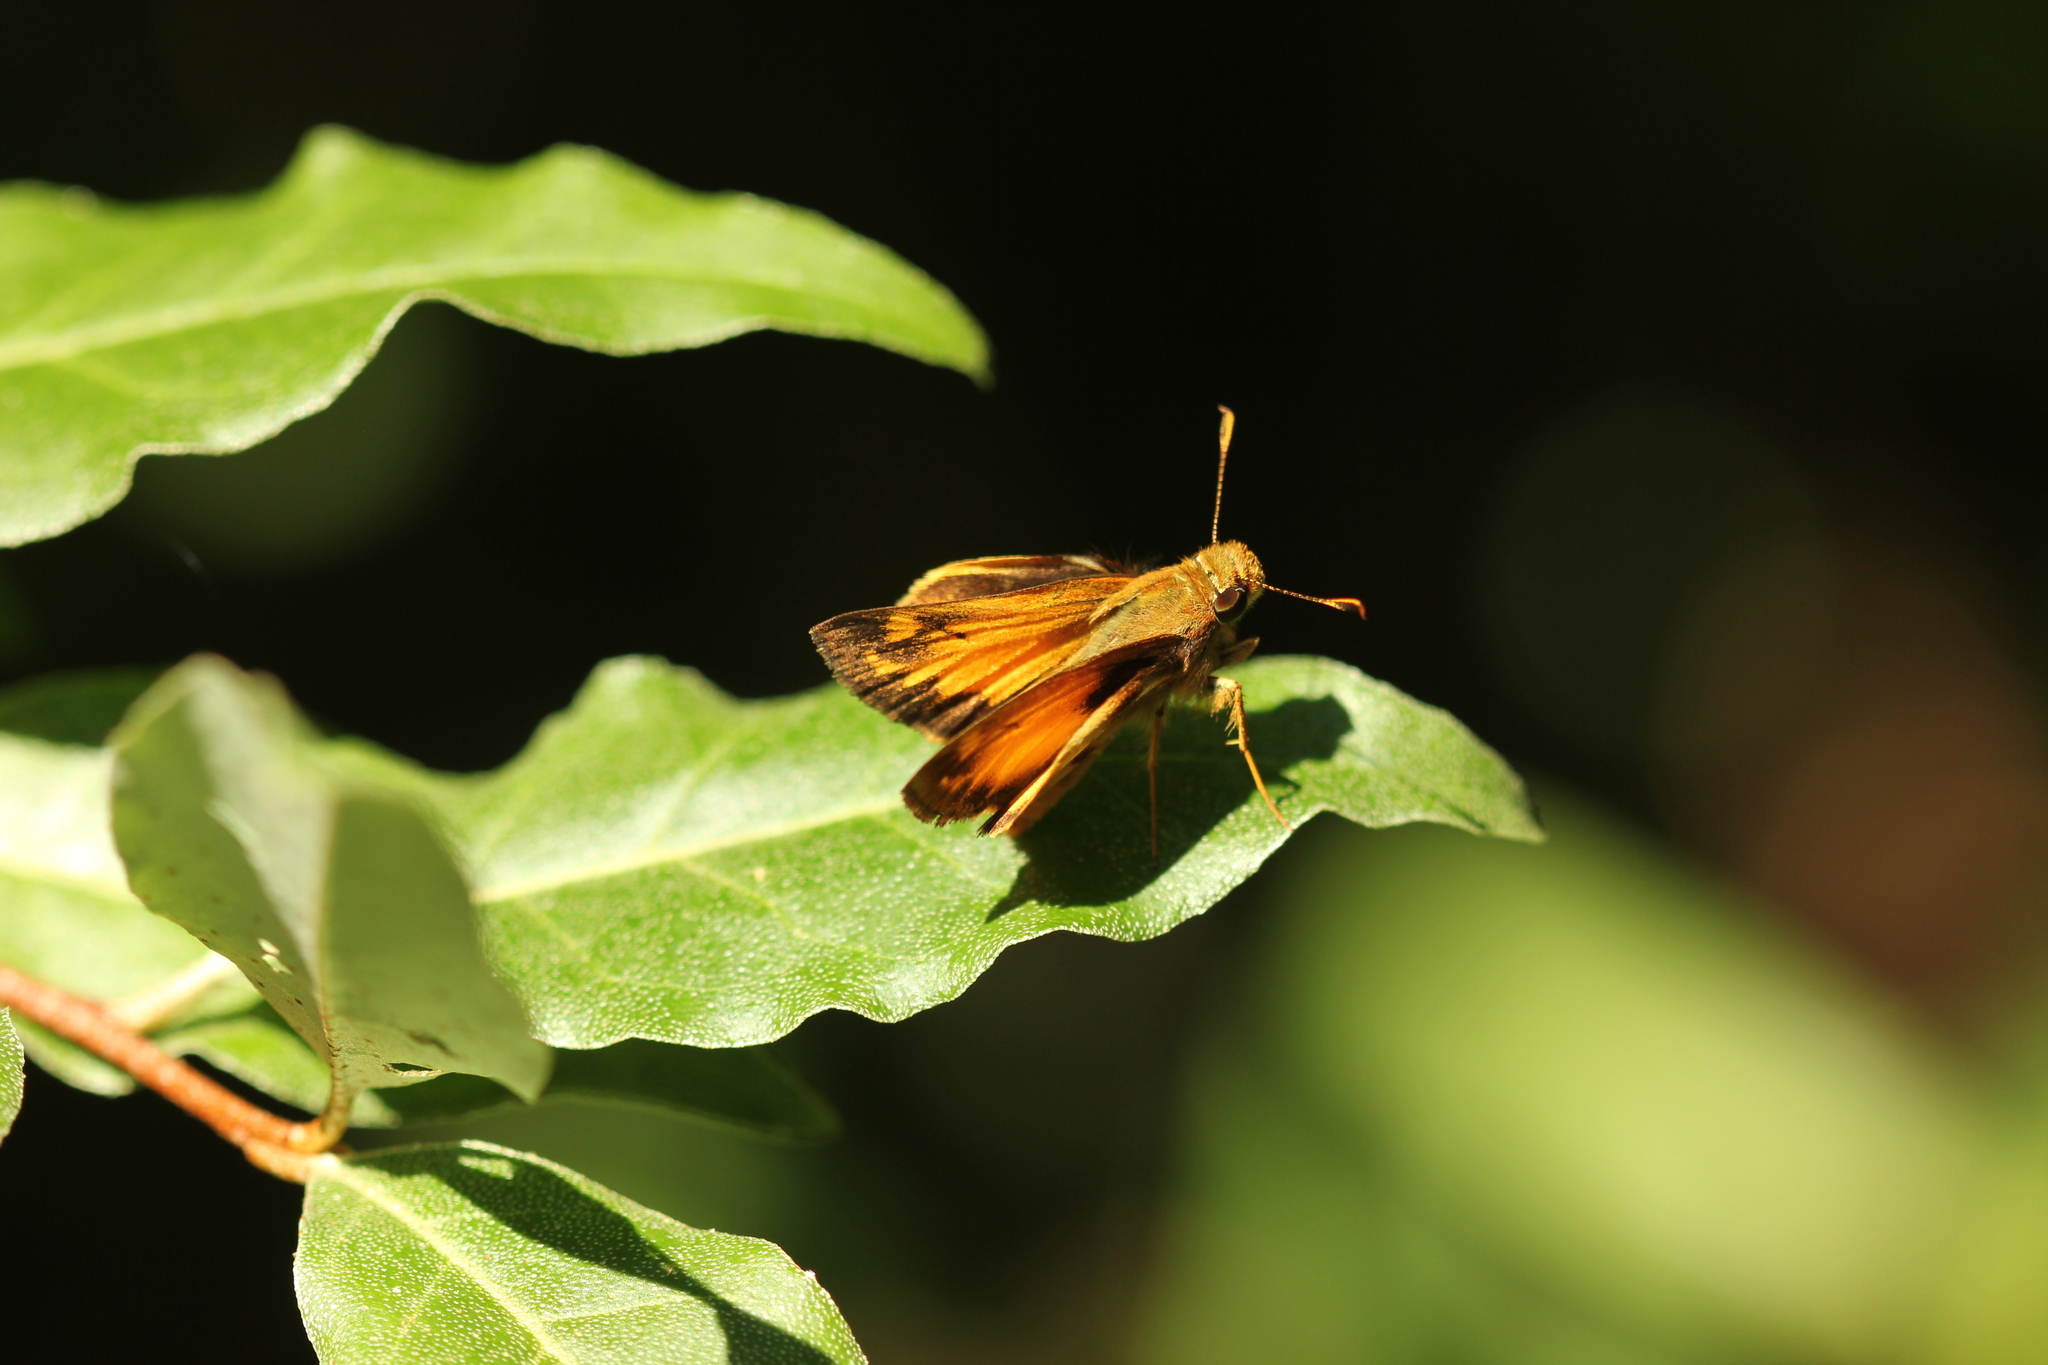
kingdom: Animalia
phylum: Arthropoda
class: Insecta
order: Lepidoptera
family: Hesperiidae
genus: Lon
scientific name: Lon zabulon
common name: Zabulon skipper
